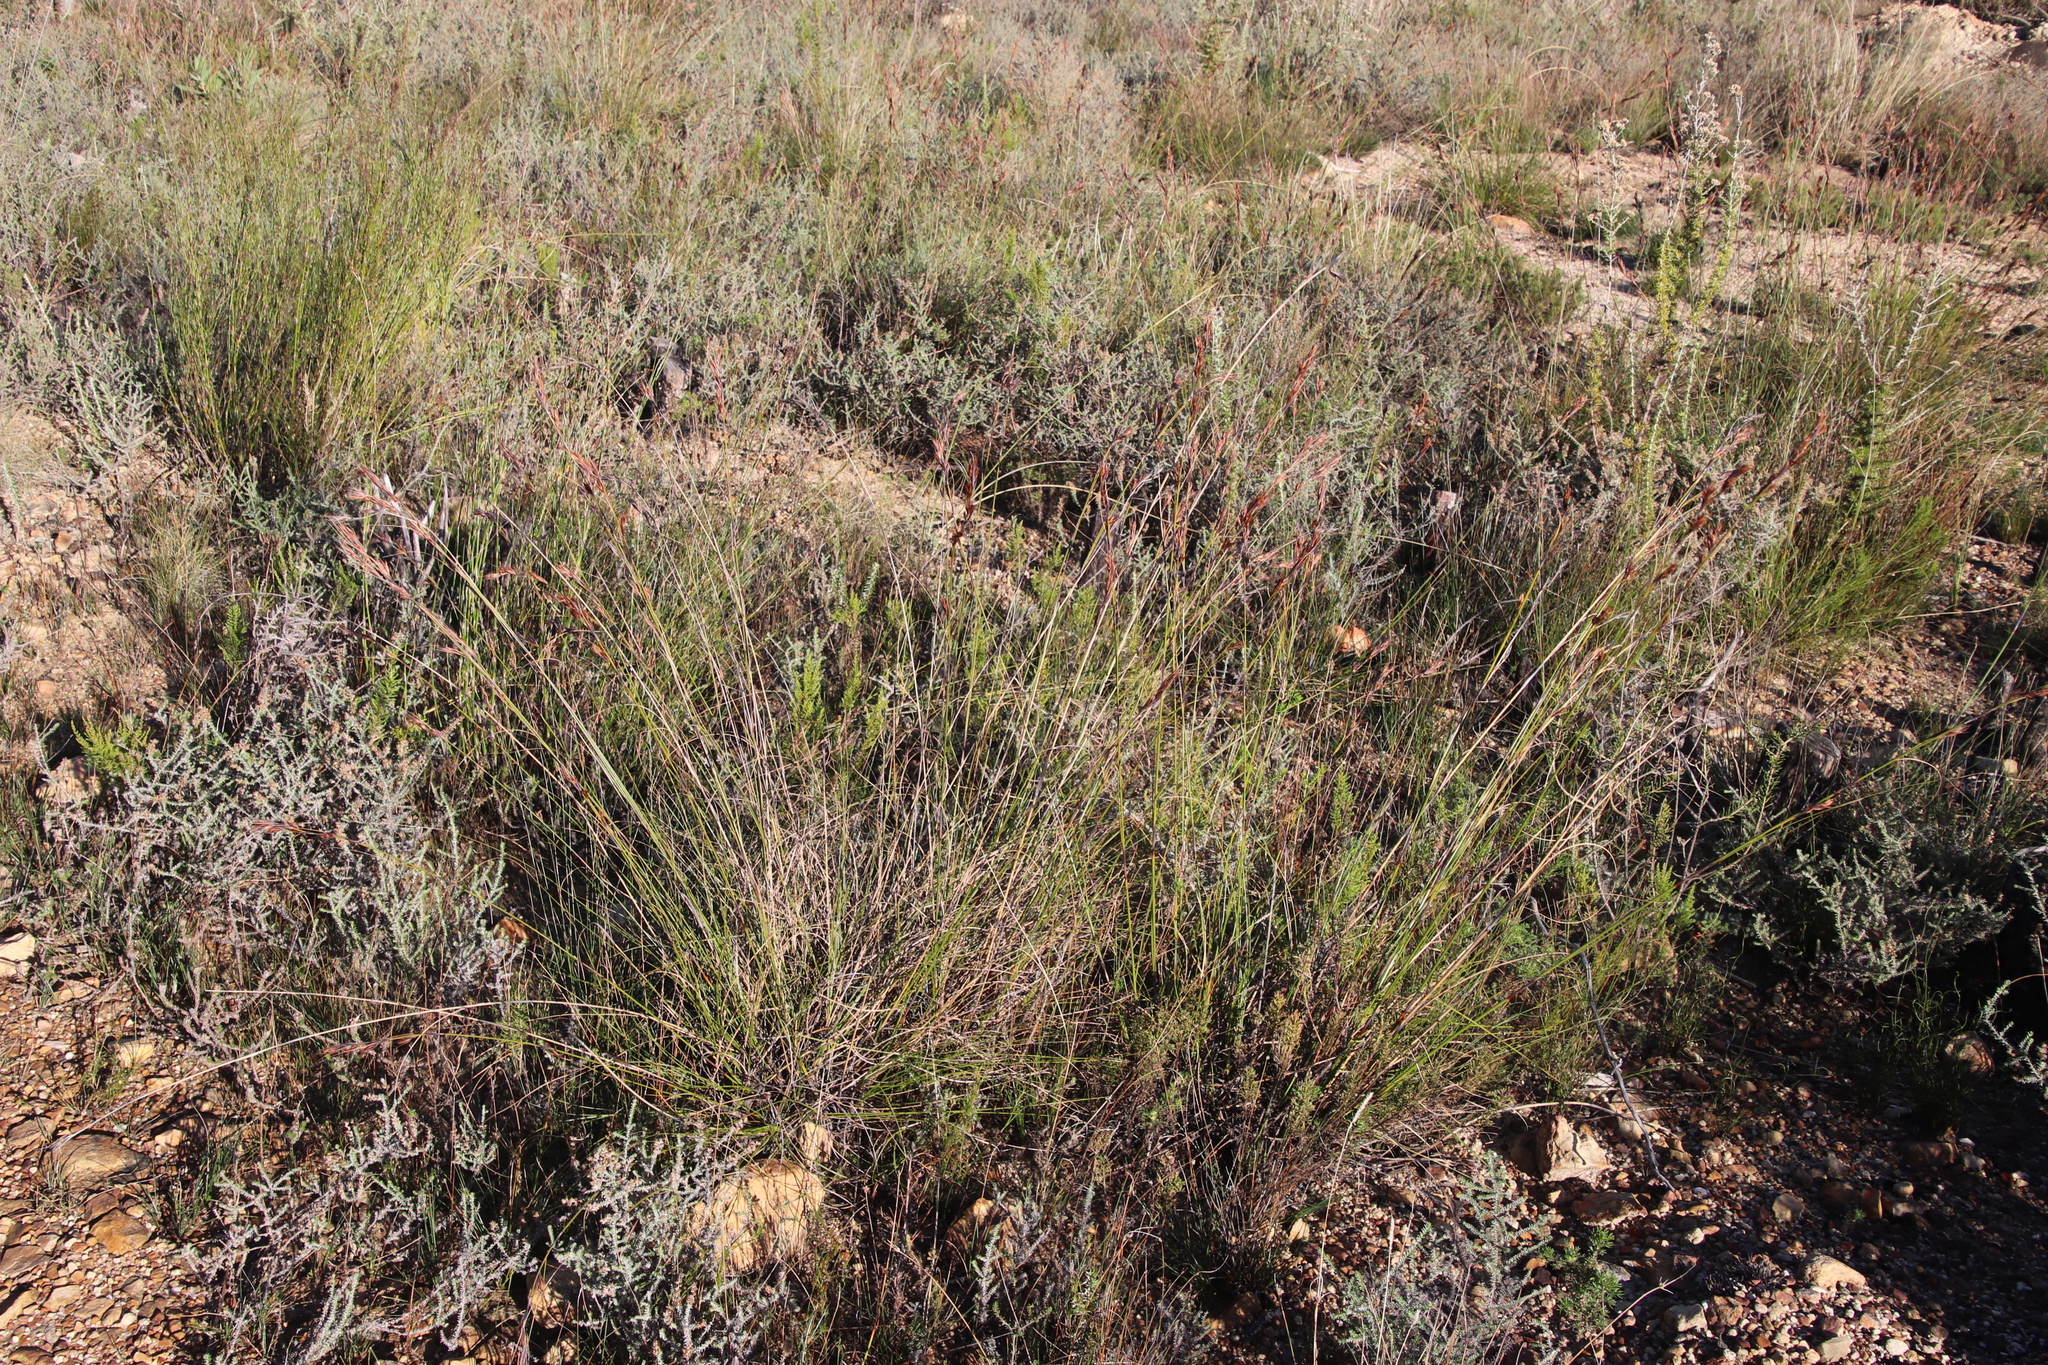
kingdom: Plantae
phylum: Tracheophyta
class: Liliopsida
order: Poales
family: Cyperaceae
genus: Tetraria
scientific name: Tetraria ustulata
